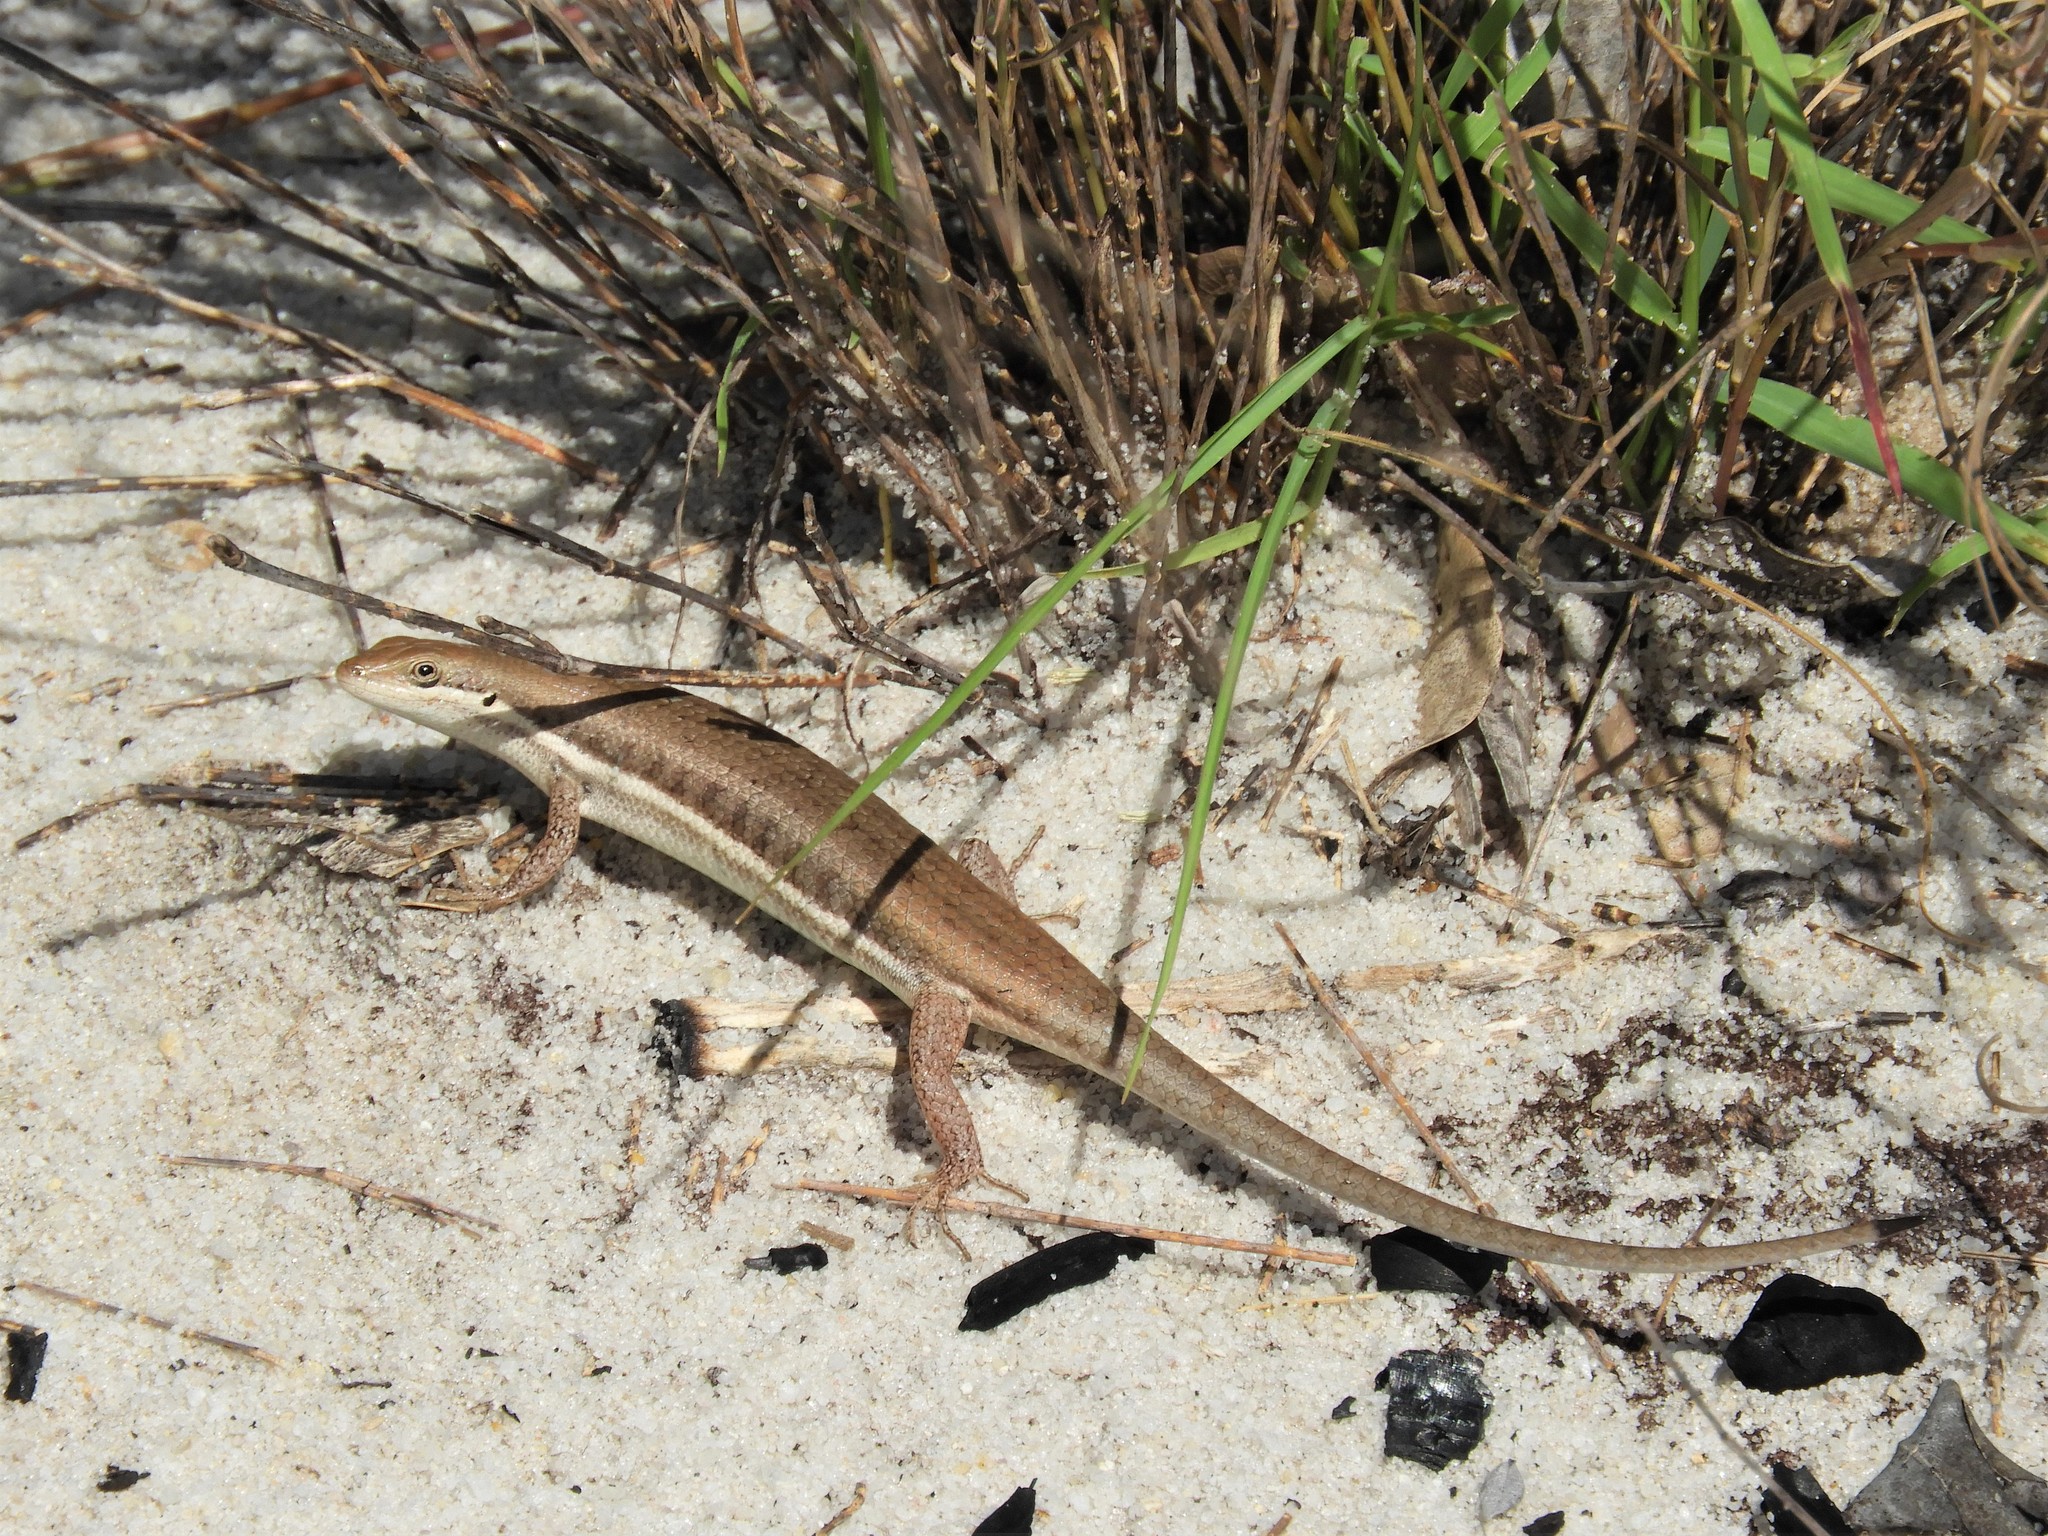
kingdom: Animalia
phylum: Chordata
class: Squamata
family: Scincidae
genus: Trachylepis
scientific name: Trachylepis varia
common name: Eastern variable skink
